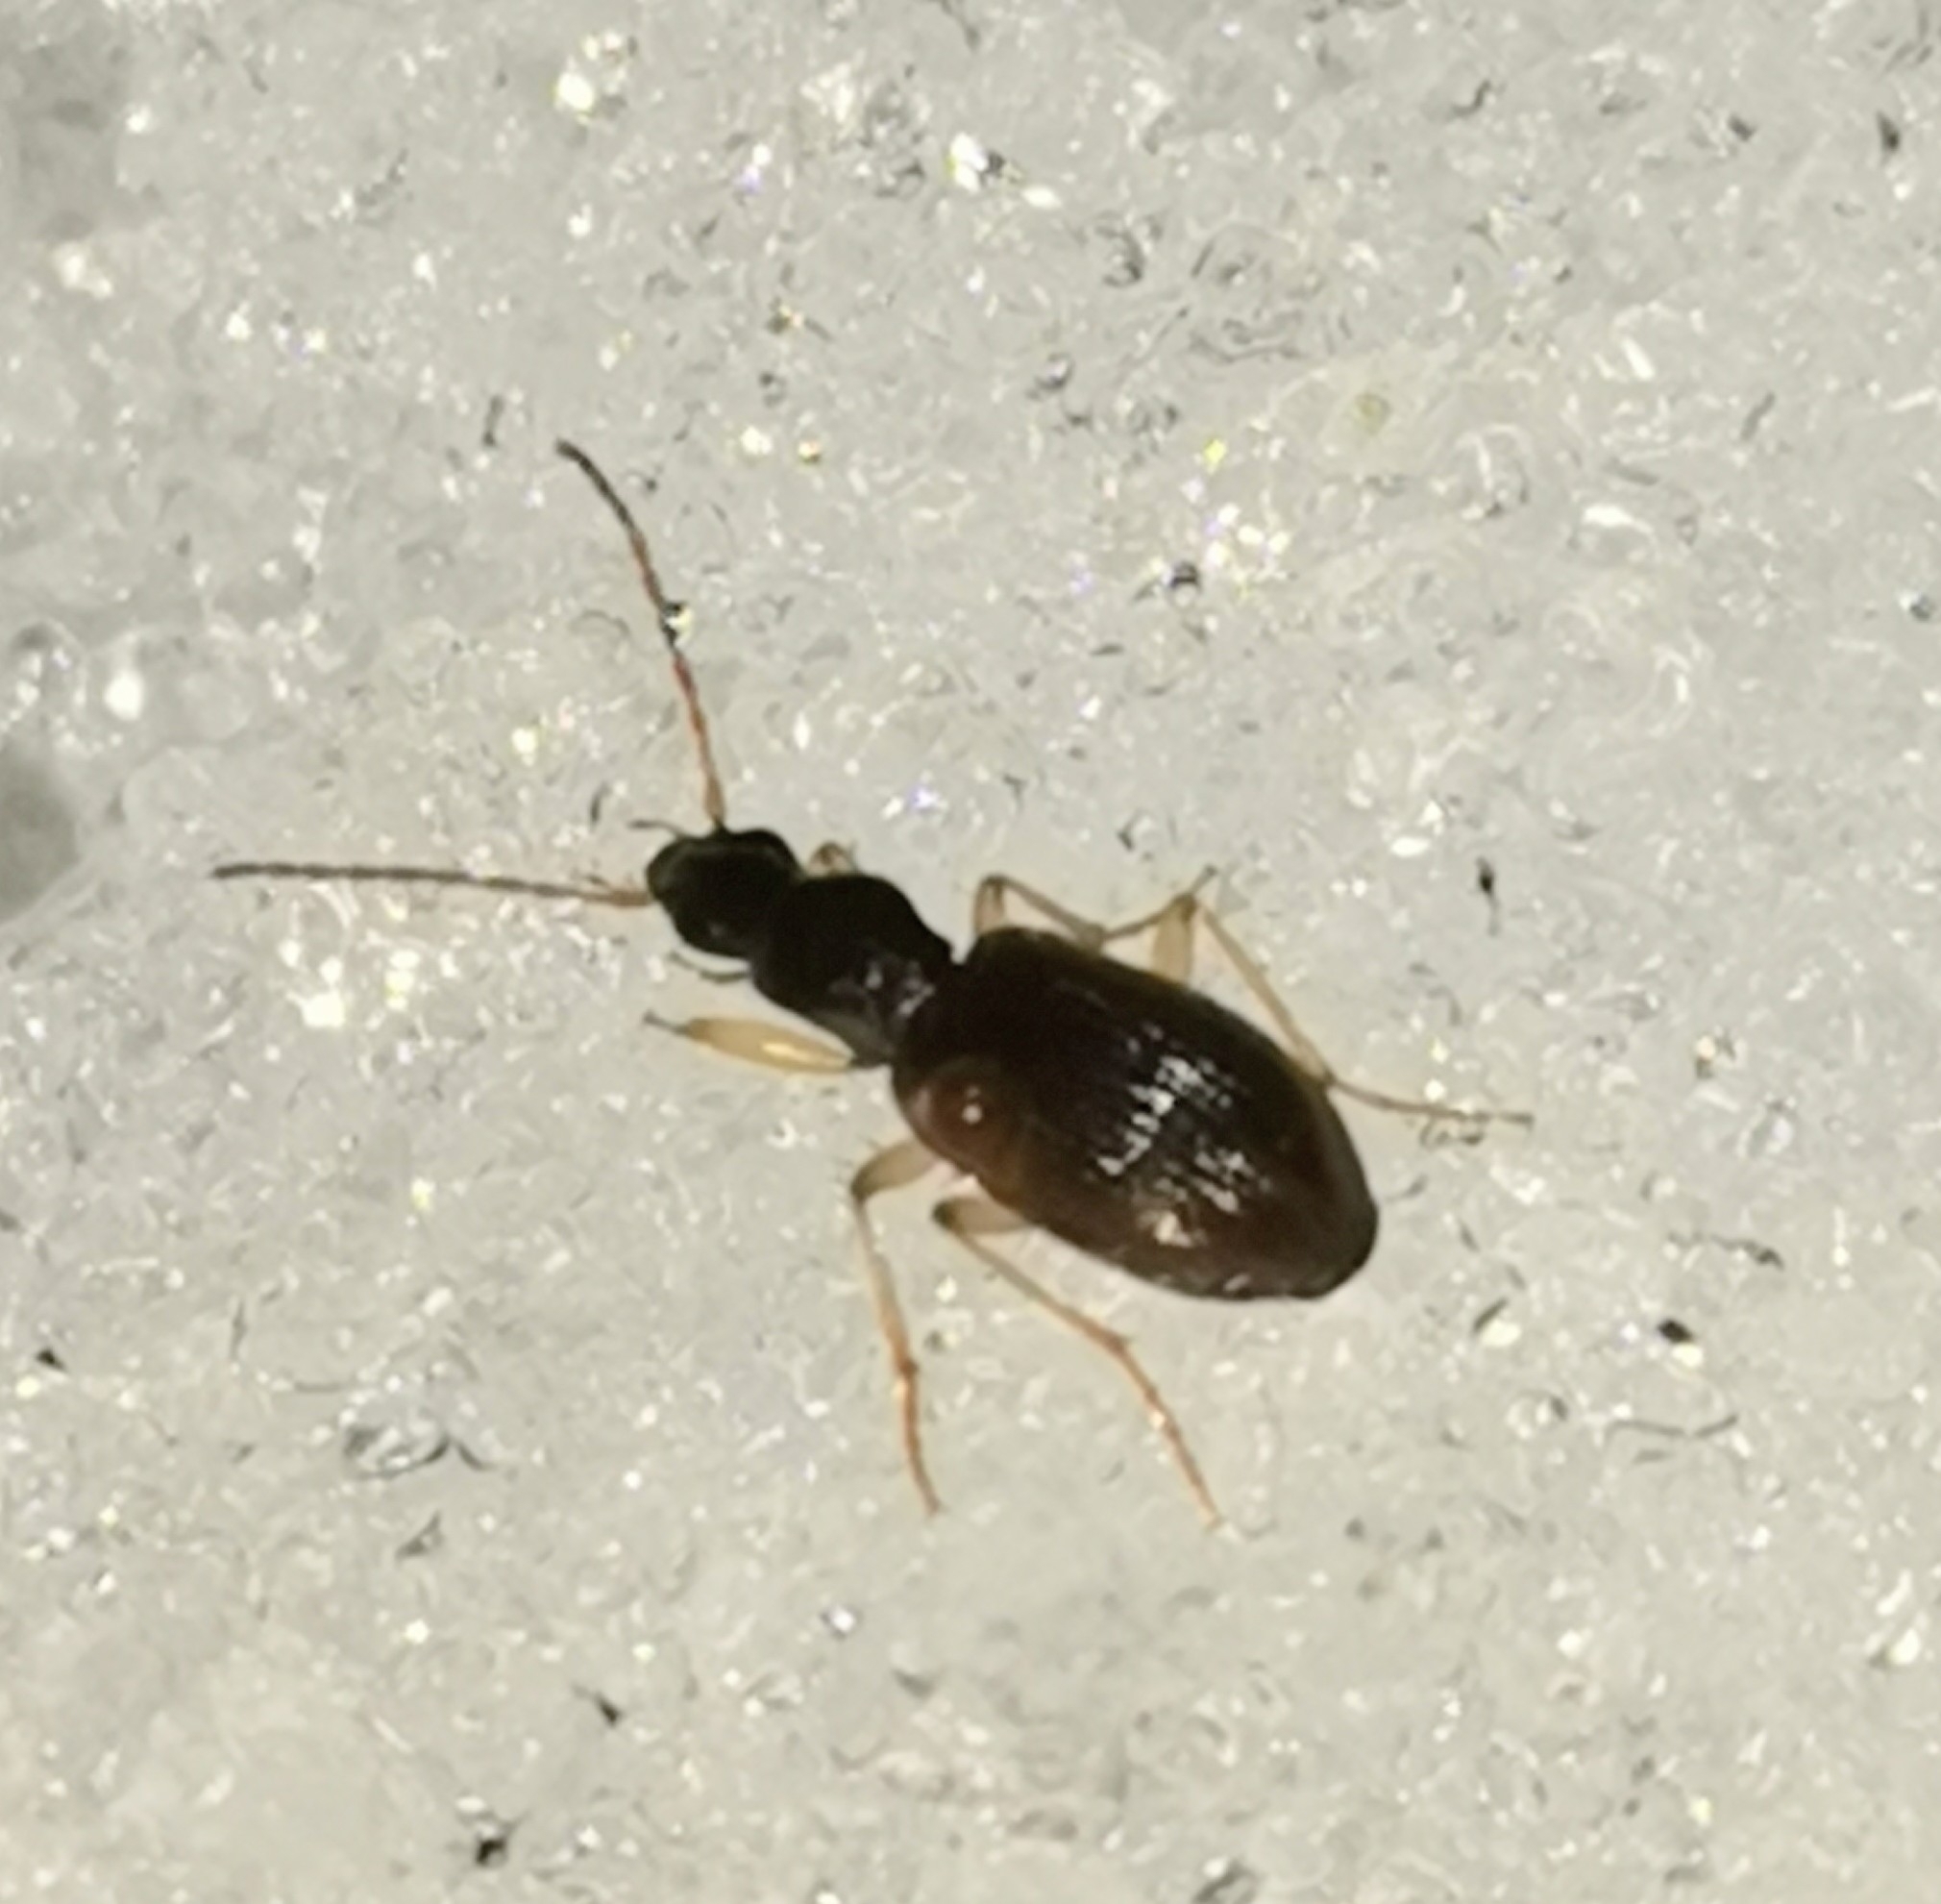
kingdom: Animalia
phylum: Arthropoda
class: Insecta
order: Coleoptera
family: Carabidae
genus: Oxypselaphus
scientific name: Oxypselaphus obscurus
